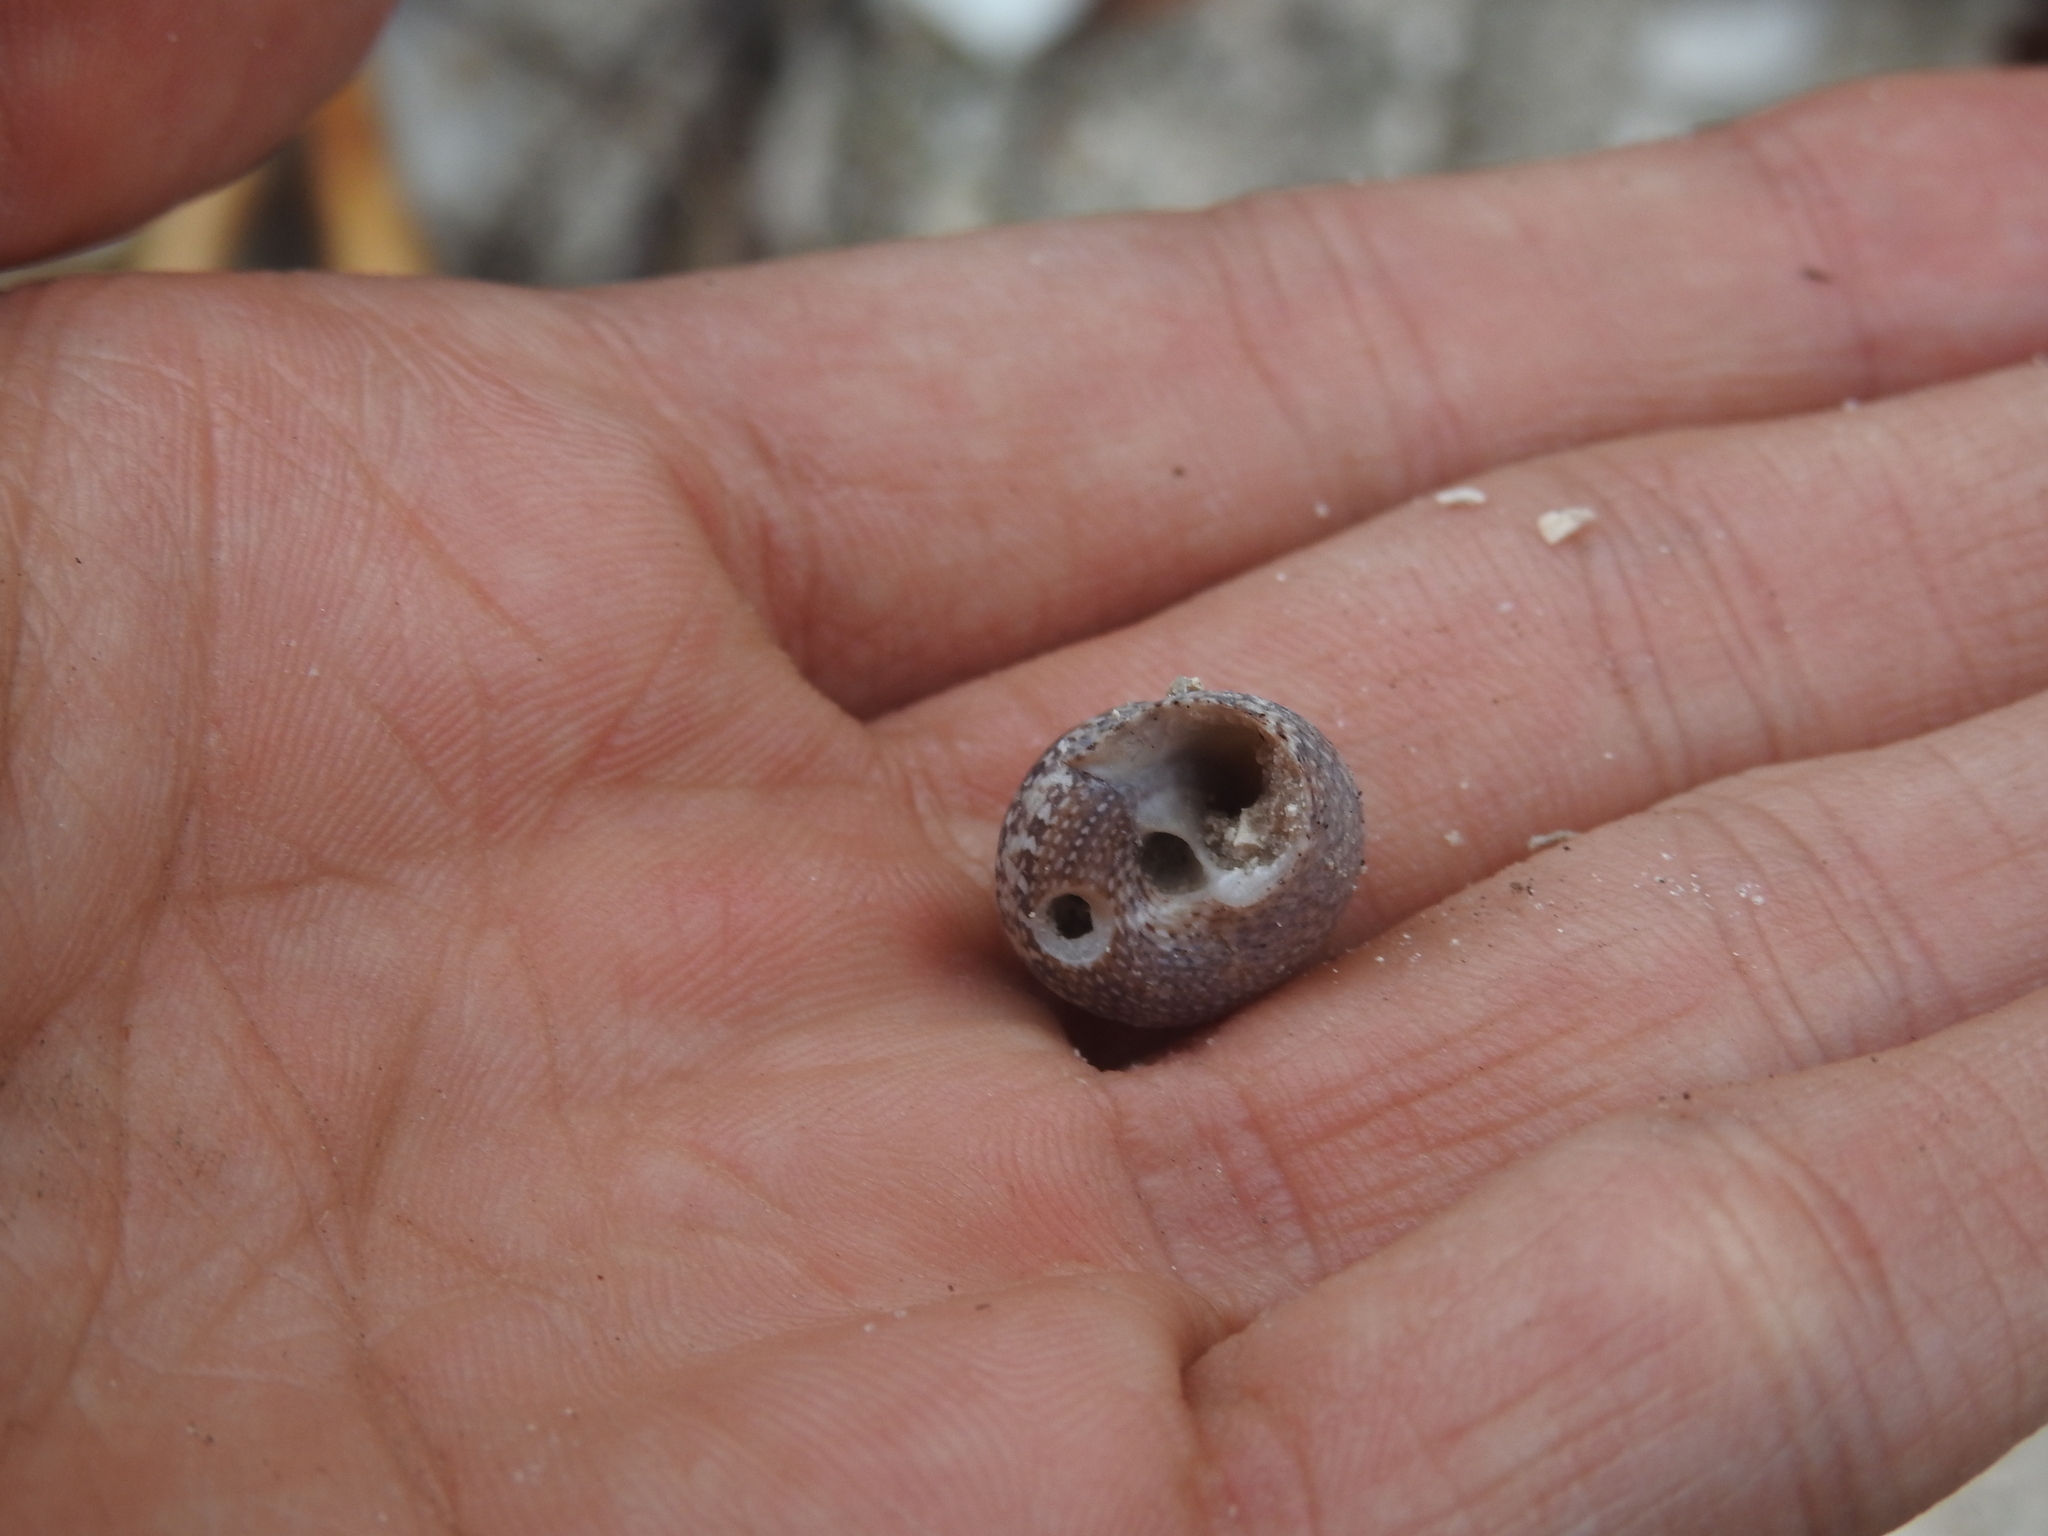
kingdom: Animalia
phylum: Mollusca
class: Gastropoda
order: Trochida
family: Tegulidae
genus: Agathistoma
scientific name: Agathistoma fasciatum
